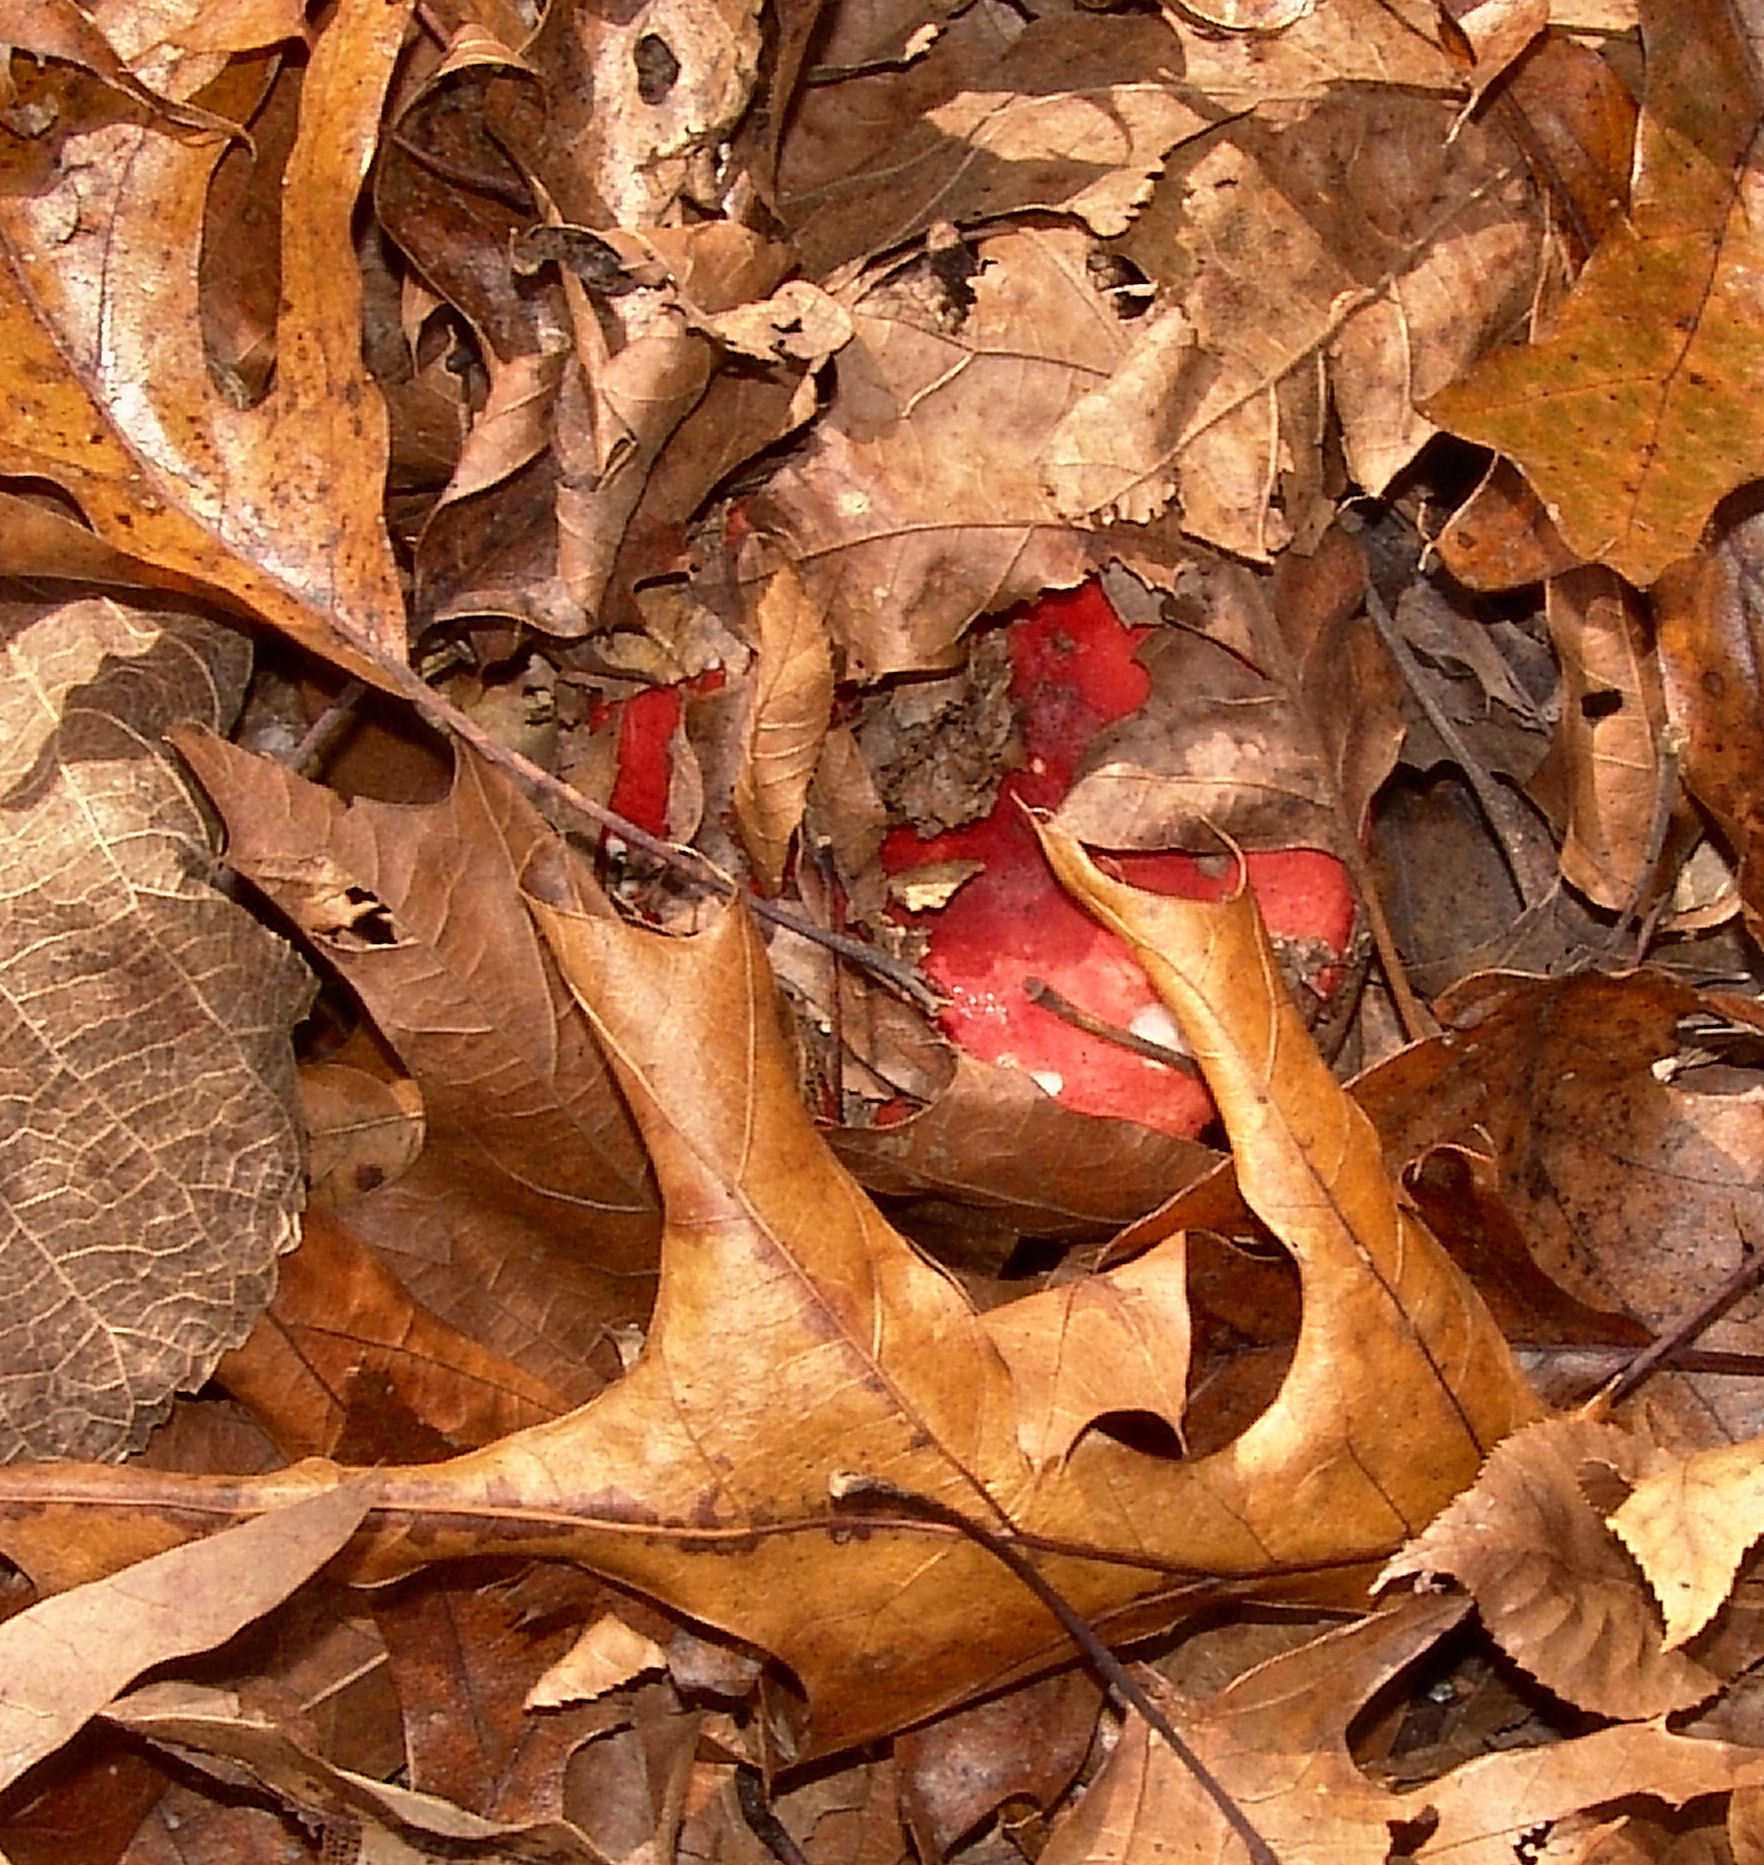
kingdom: Fungi
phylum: Basidiomycota
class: Agaricomycetes
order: Russulales
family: Russulaceae
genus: Russula
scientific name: Russula
